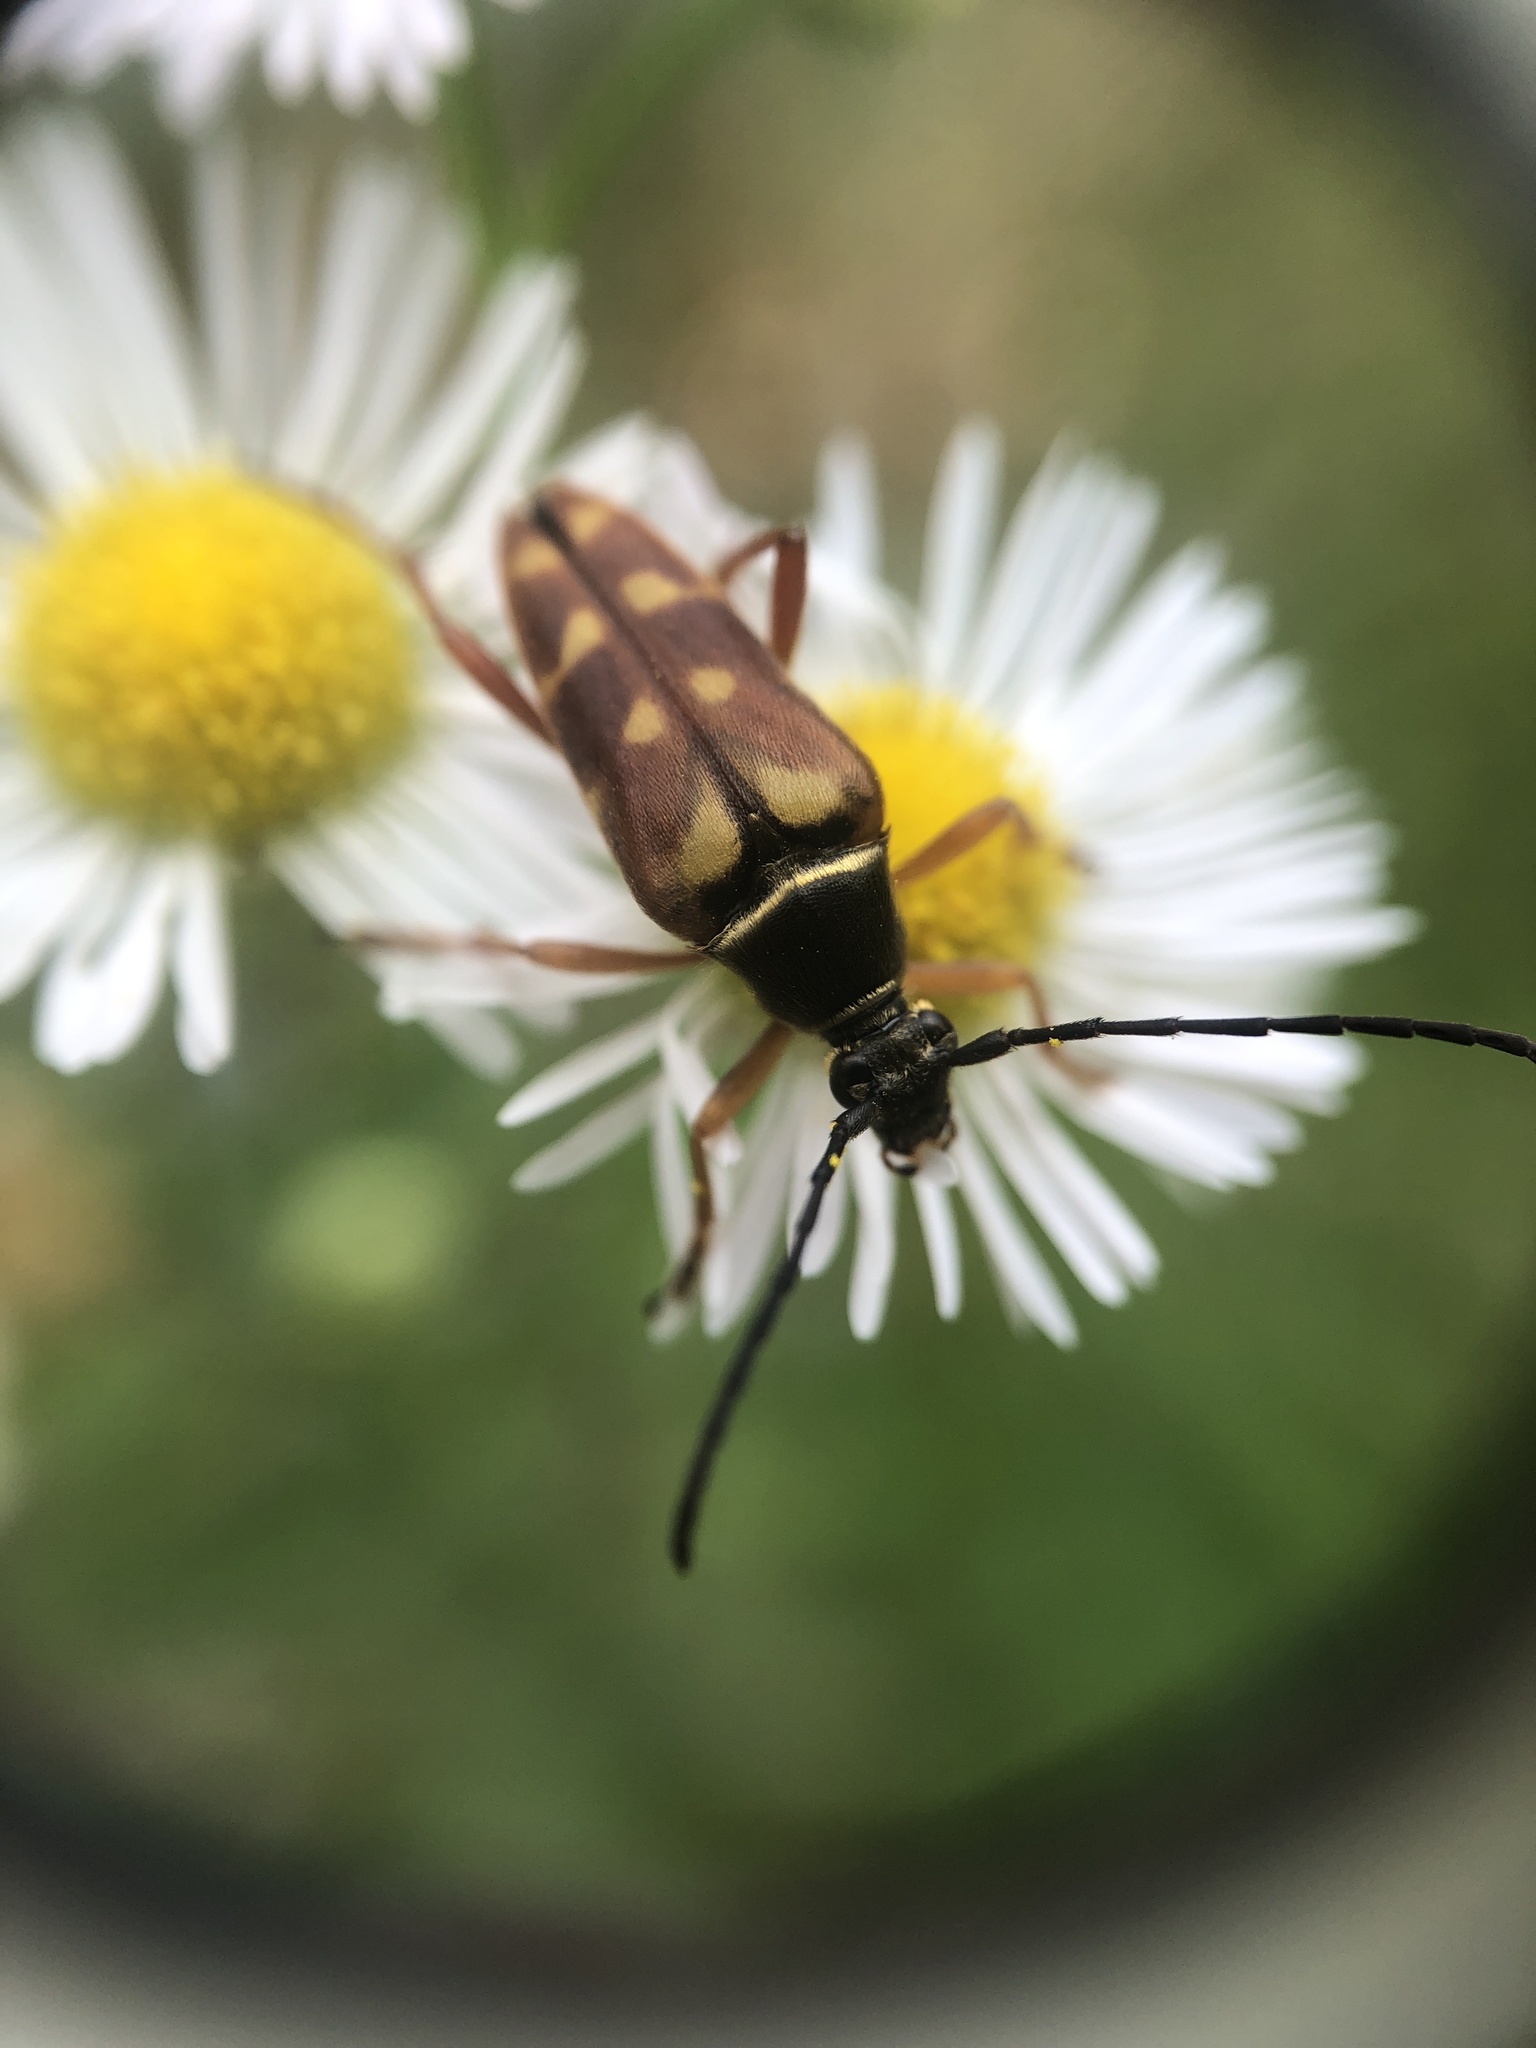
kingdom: Animalia
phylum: Arthropoda
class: Insecta
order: Coleoptera
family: Cerambycidae
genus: Typocerus
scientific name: Typocerus velutinus
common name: Banded longhorn beetle
